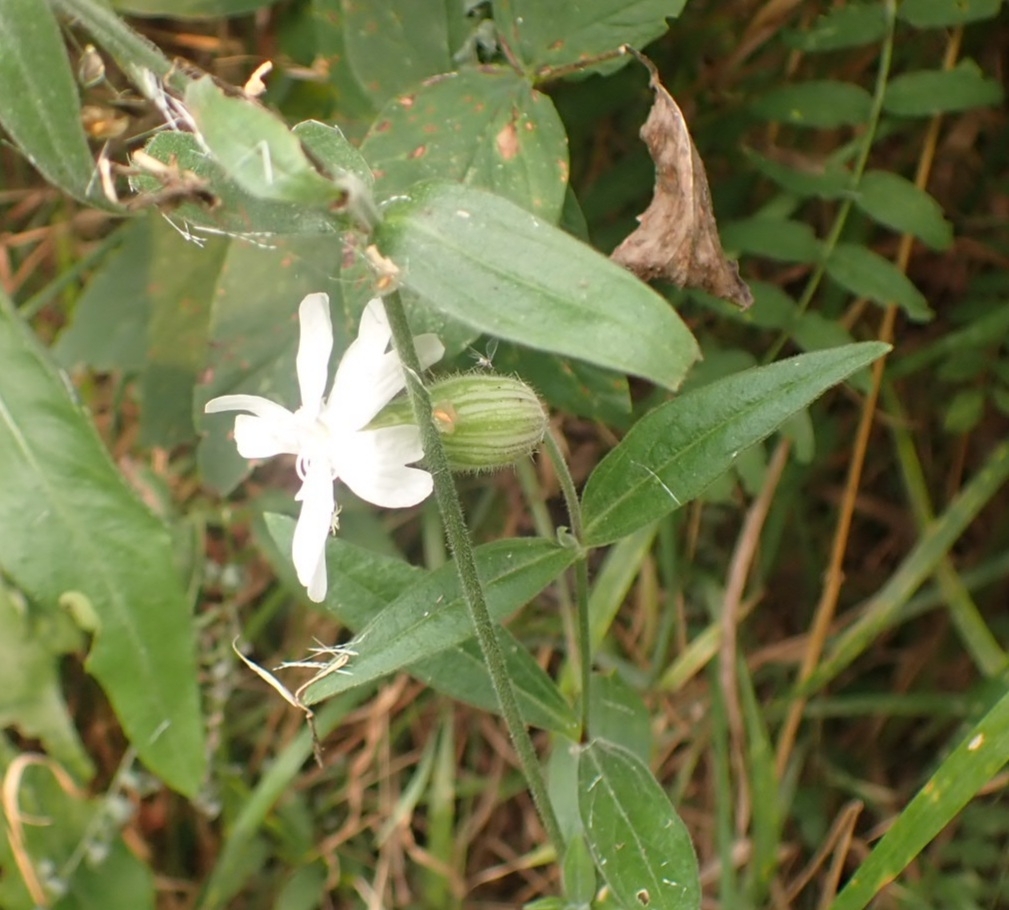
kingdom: Plantae
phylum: Tracheophyta
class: Magnoliopsida
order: Caryophyllales
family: Caryophyllaceae
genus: Silene
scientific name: Silene latifolia
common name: White campion
